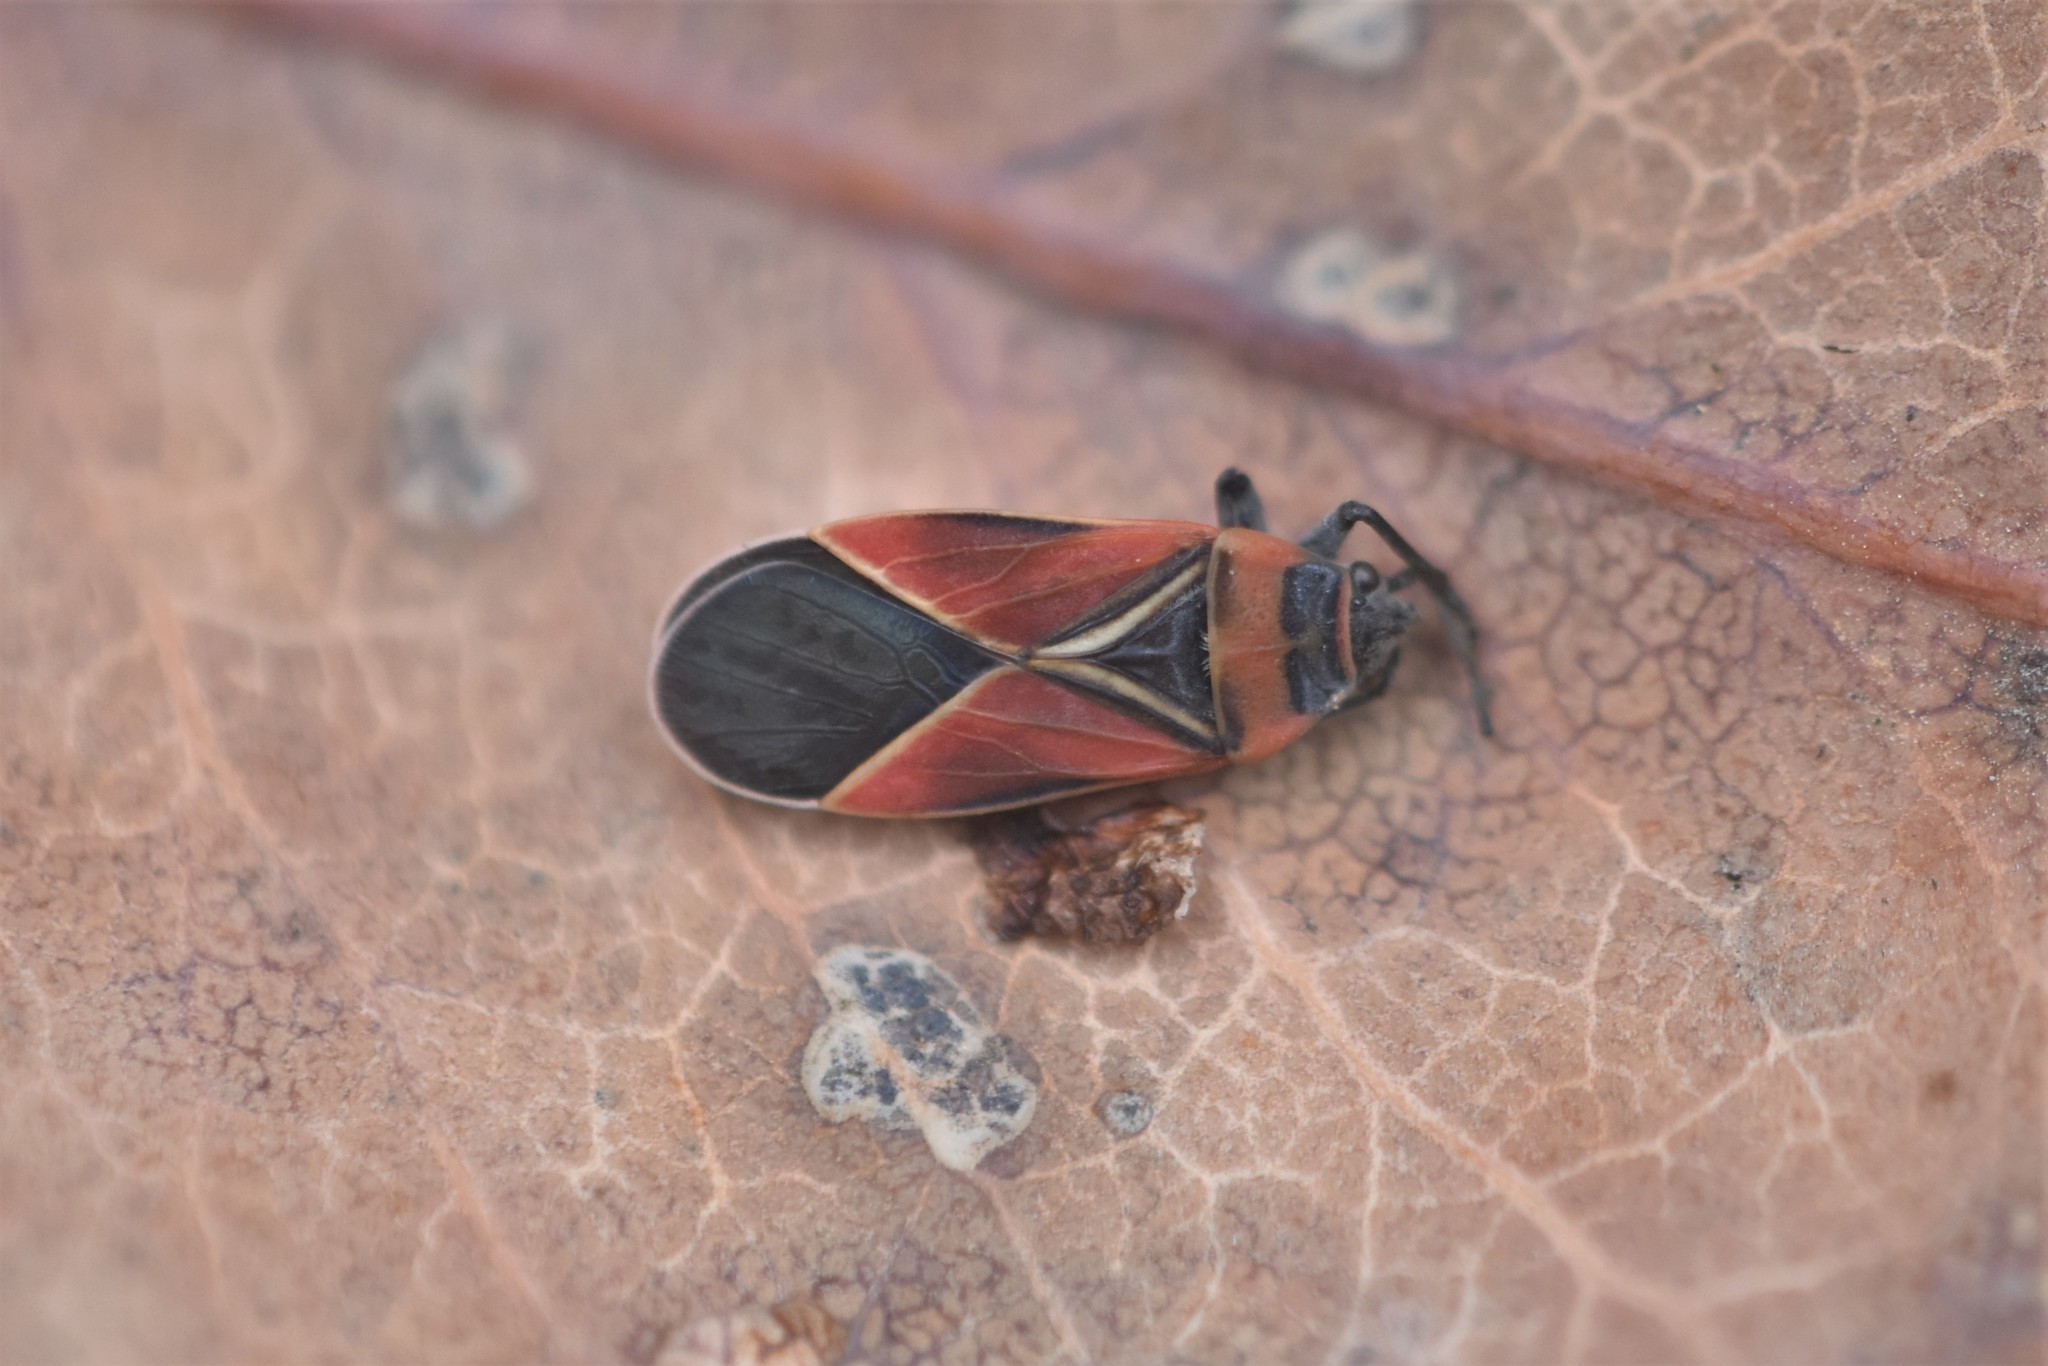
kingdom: Animalia
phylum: Arthropoda
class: Insecta
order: Hemiptera
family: Lygaeidae
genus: Neacoryphus
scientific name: Neacoryphus bicrucis
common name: Lygaeid bug
